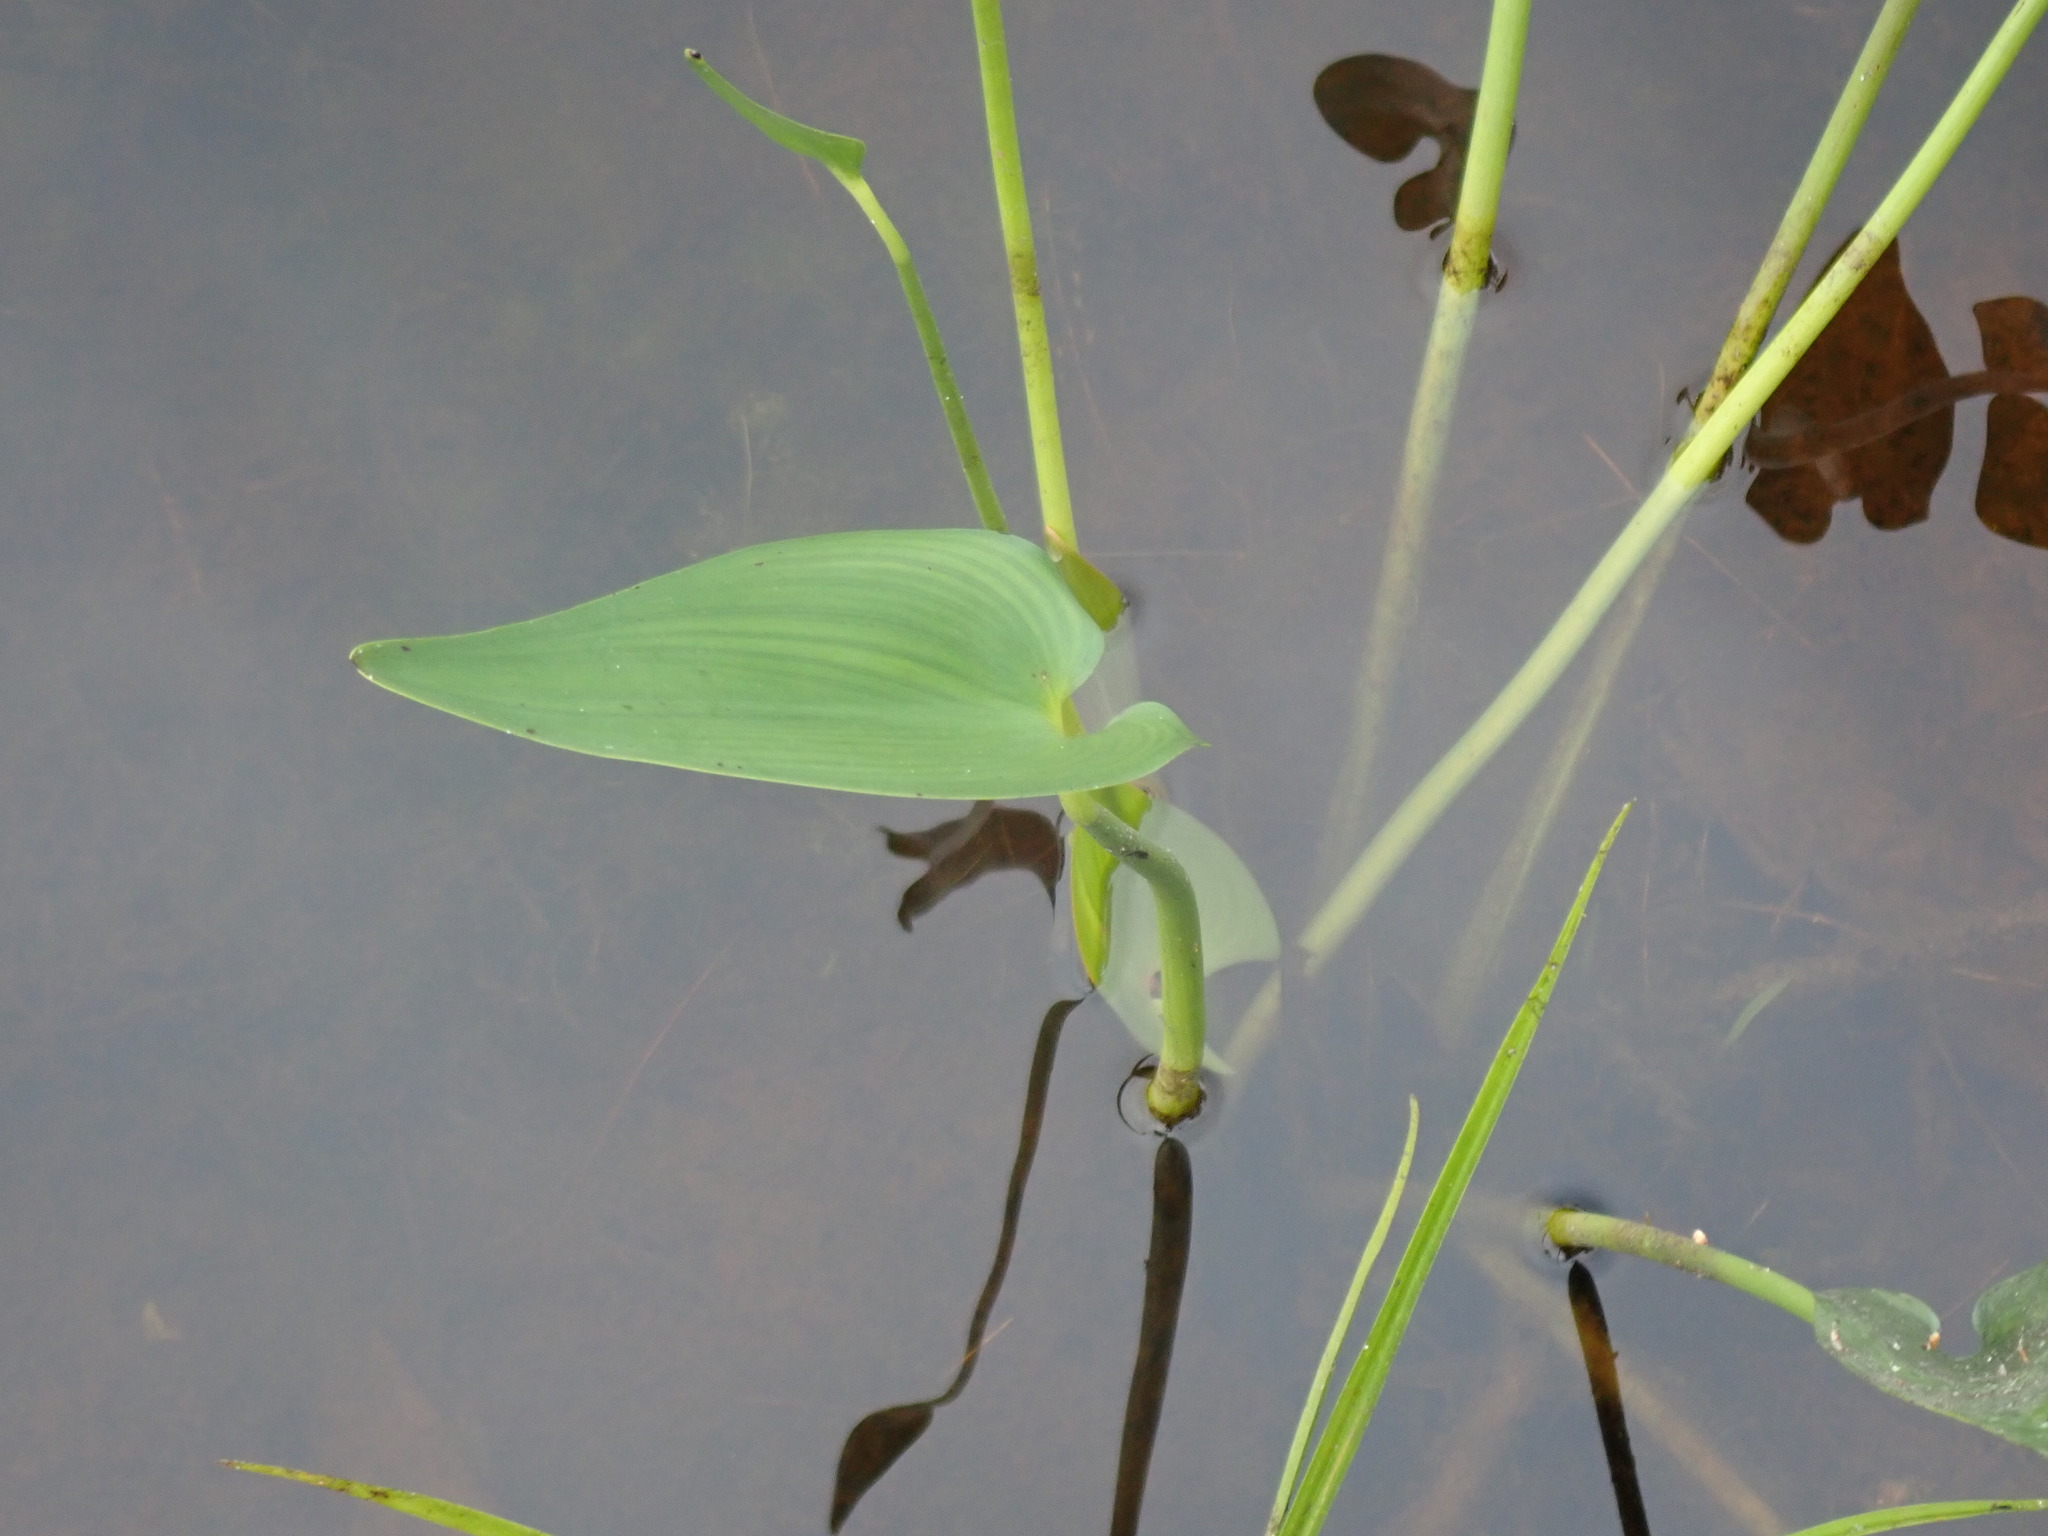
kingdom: Plantae
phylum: Tracheophyta
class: Liliopsida
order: Commelinales
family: Pontederiaceae
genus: Pontederia
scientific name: Pontederia cordata
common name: Pickerelweed
